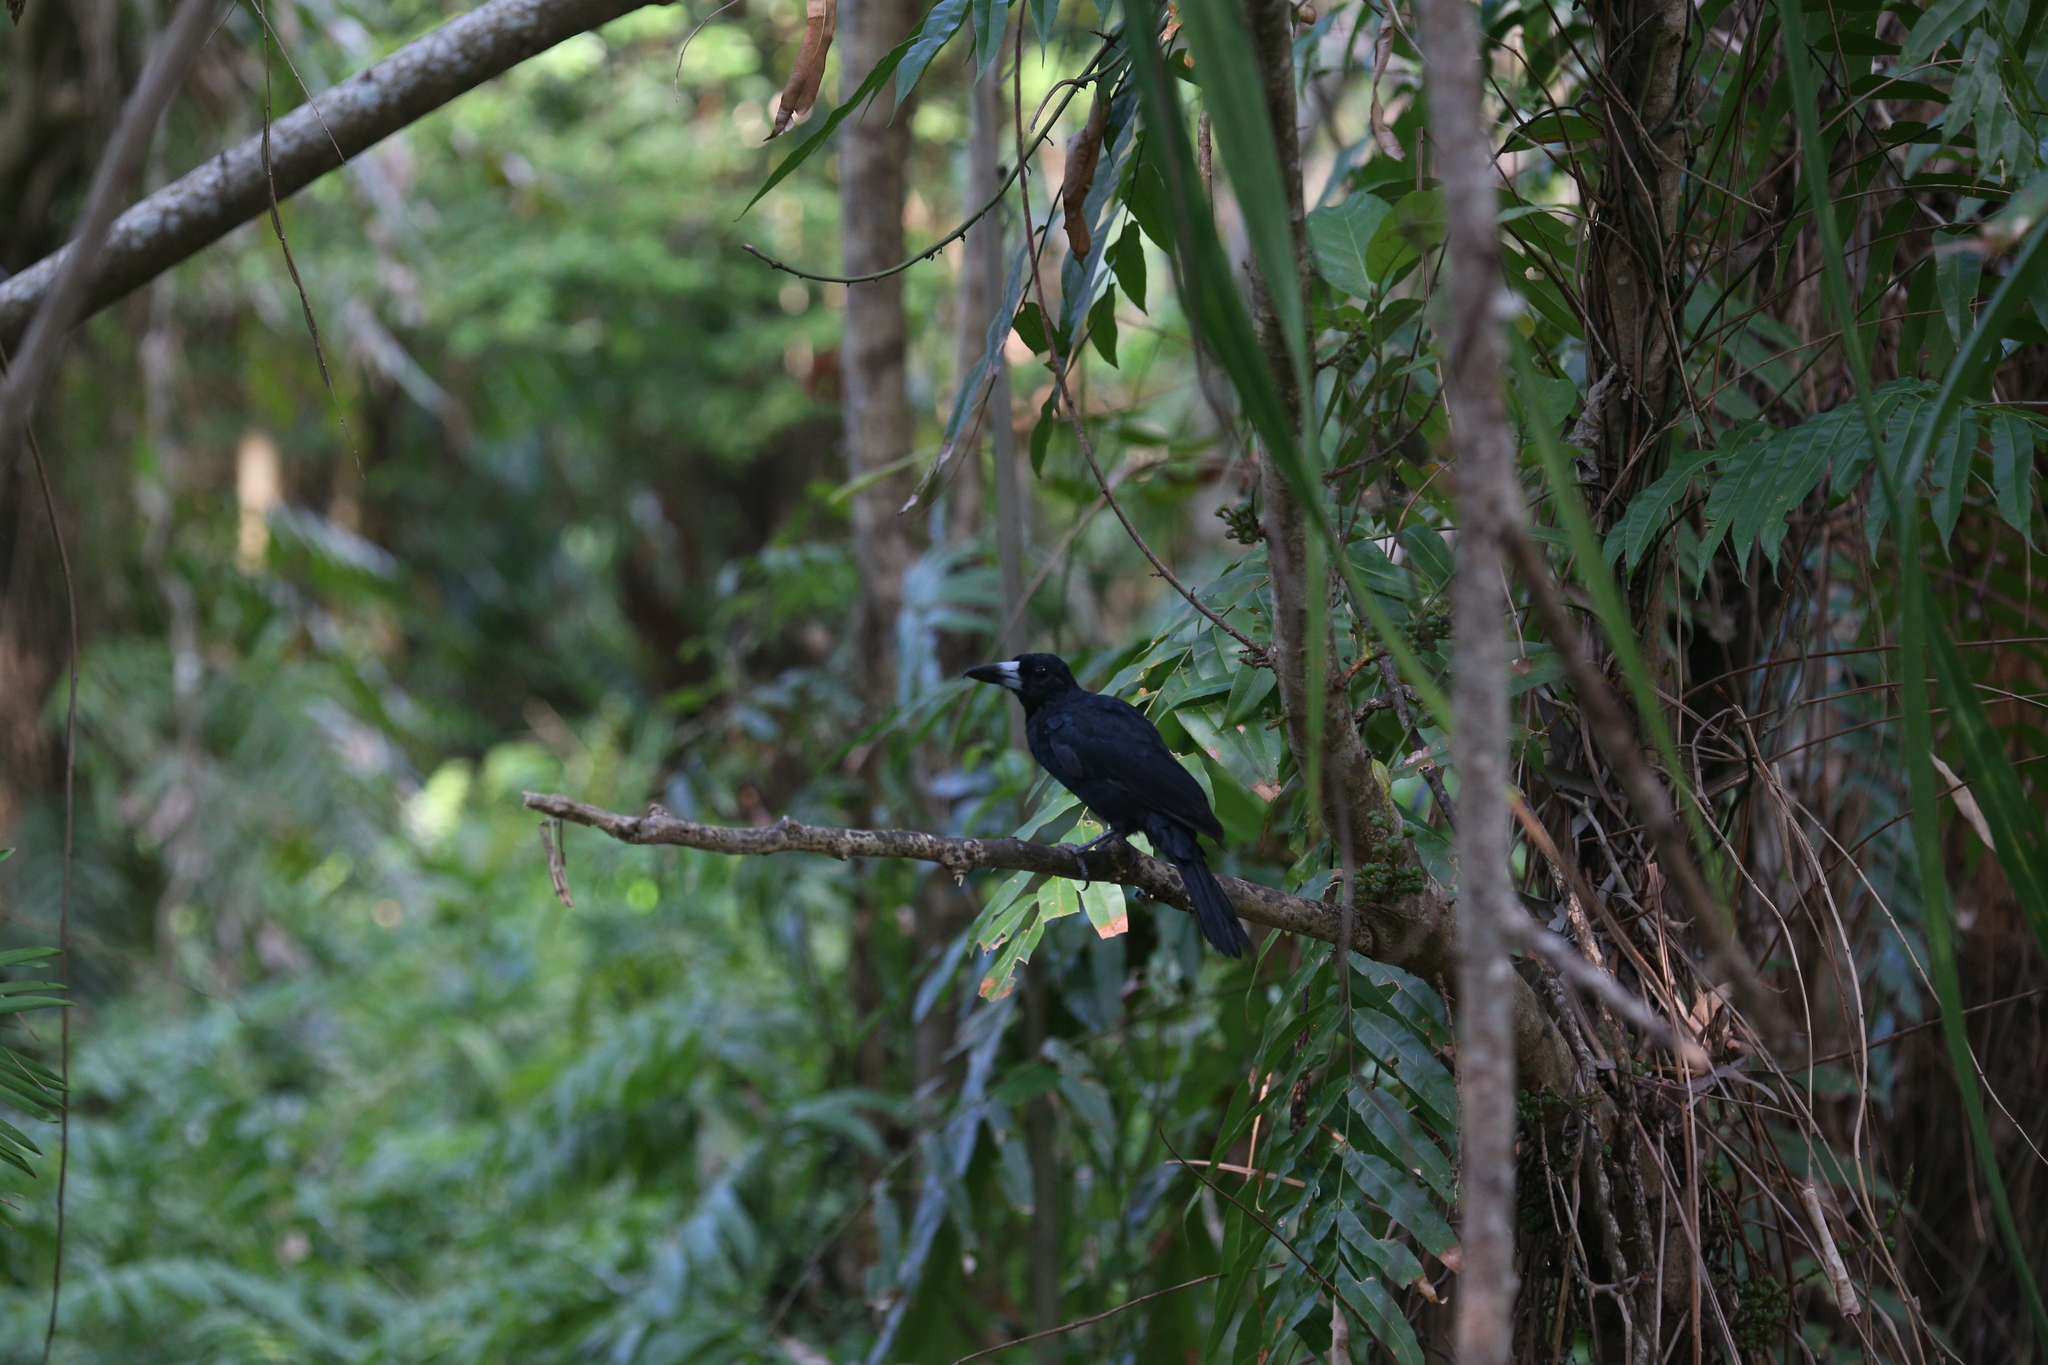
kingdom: Animalia
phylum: Chordata
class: Aves
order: Passeriformes
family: Artamidae
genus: Melloria
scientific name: Melloria quoyi
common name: Black butcherbird
